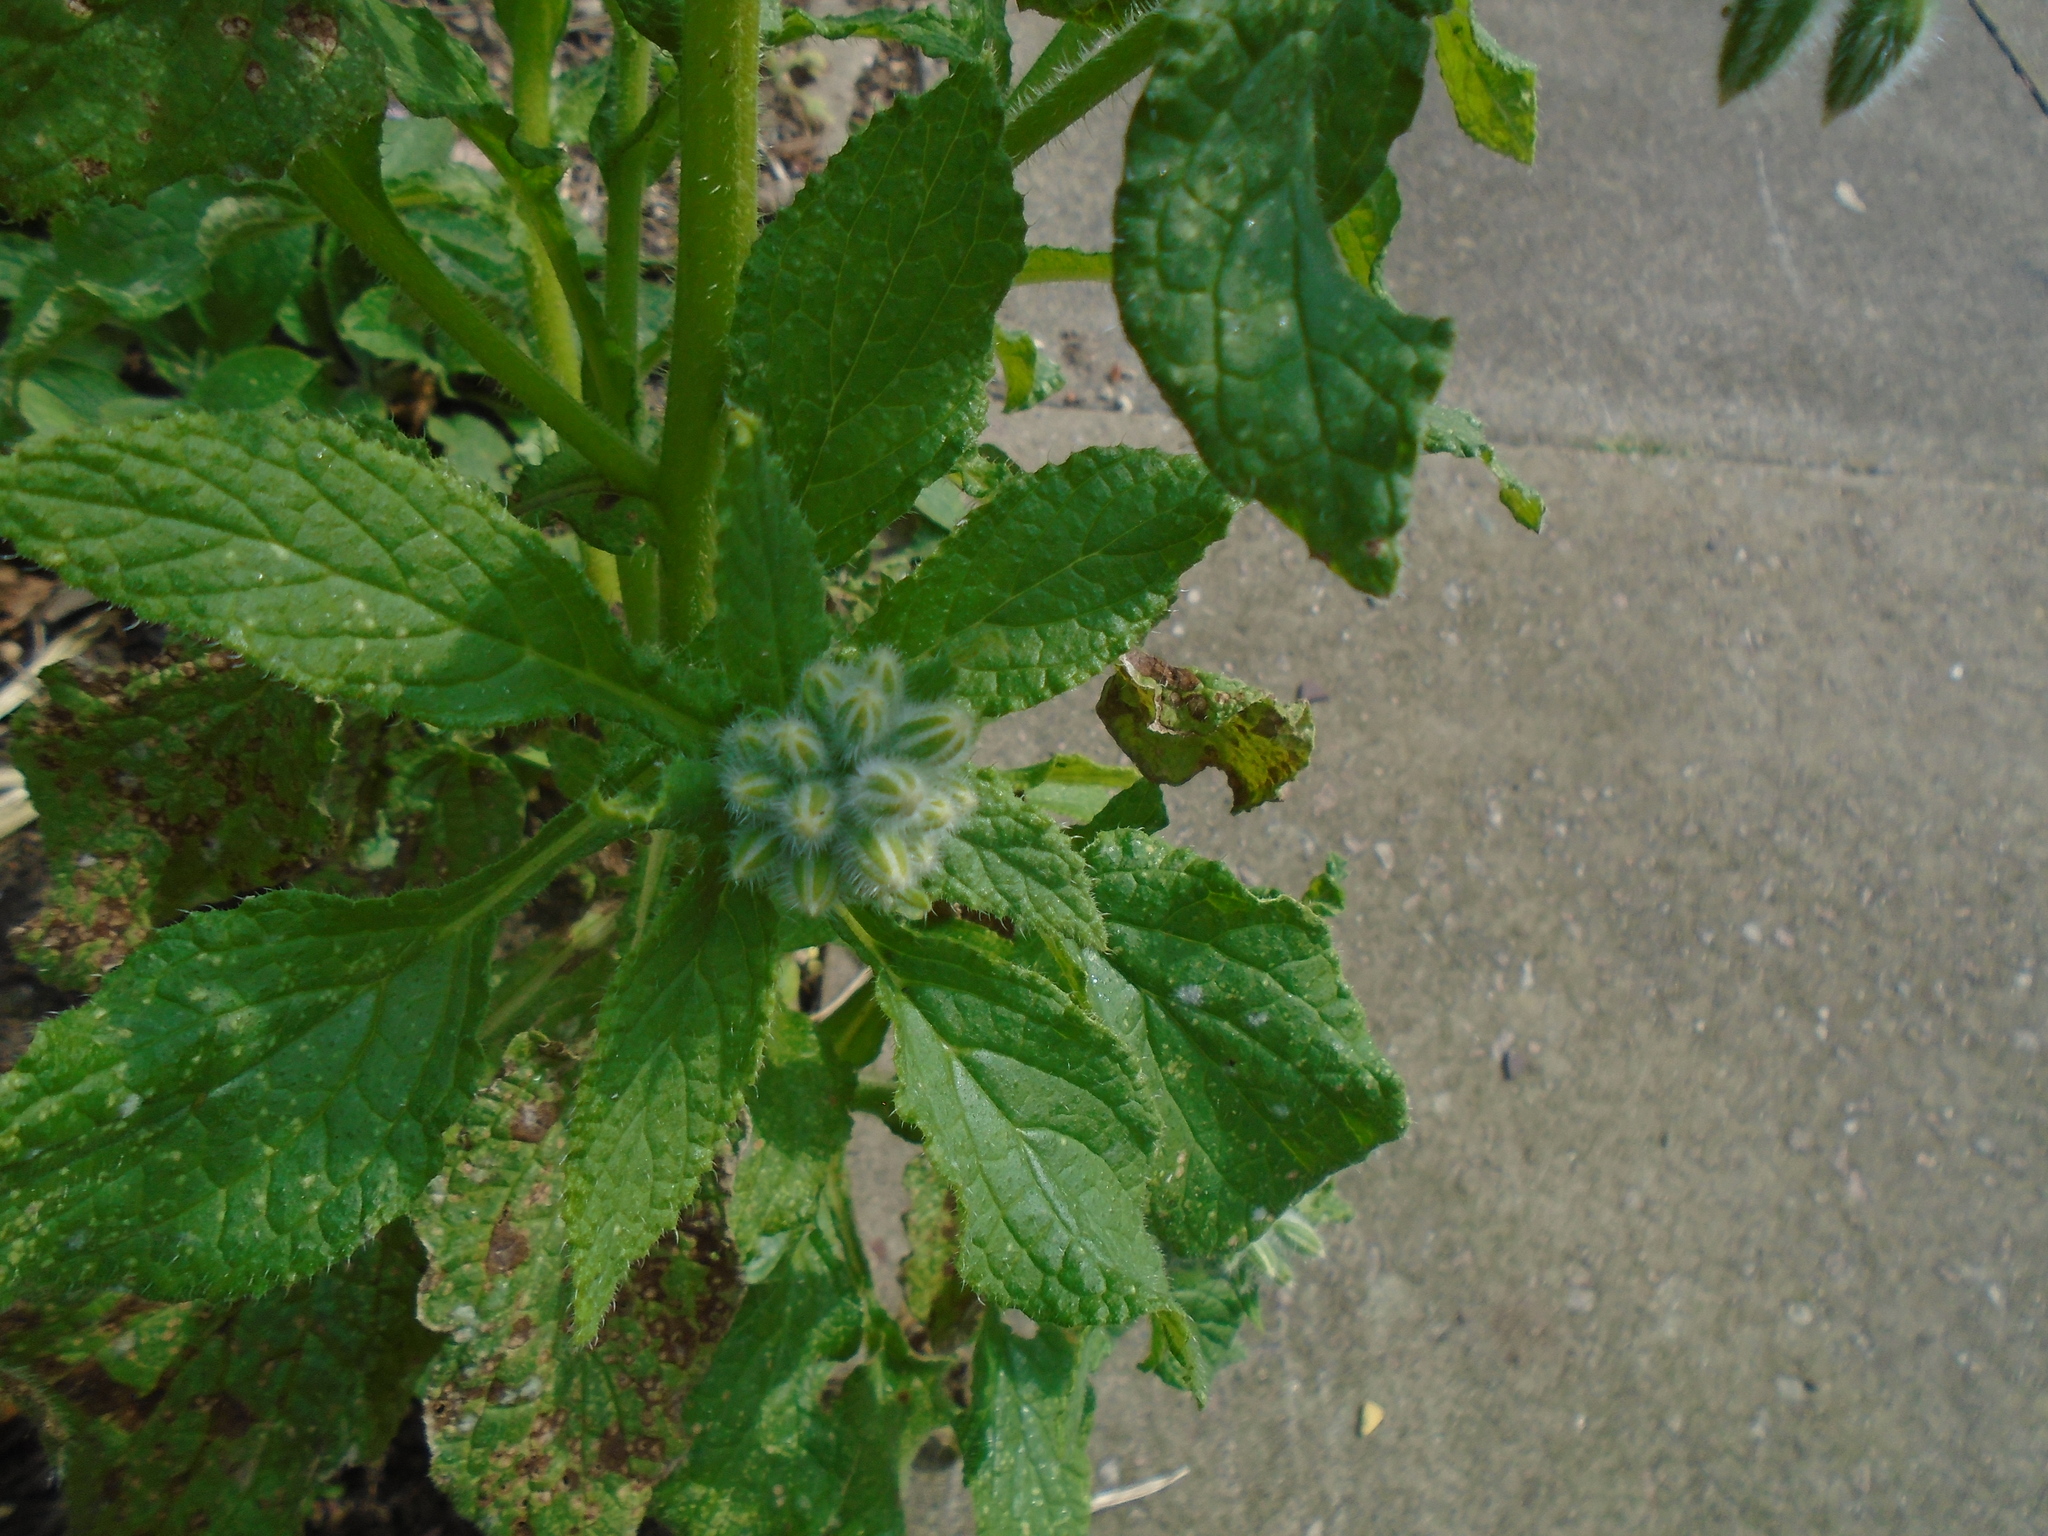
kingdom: Plantae
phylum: Tracheophyta
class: Magnoliopsida
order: Boraginales
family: Boraginaceae
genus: Borago
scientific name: Borago officinalis
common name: Borage
